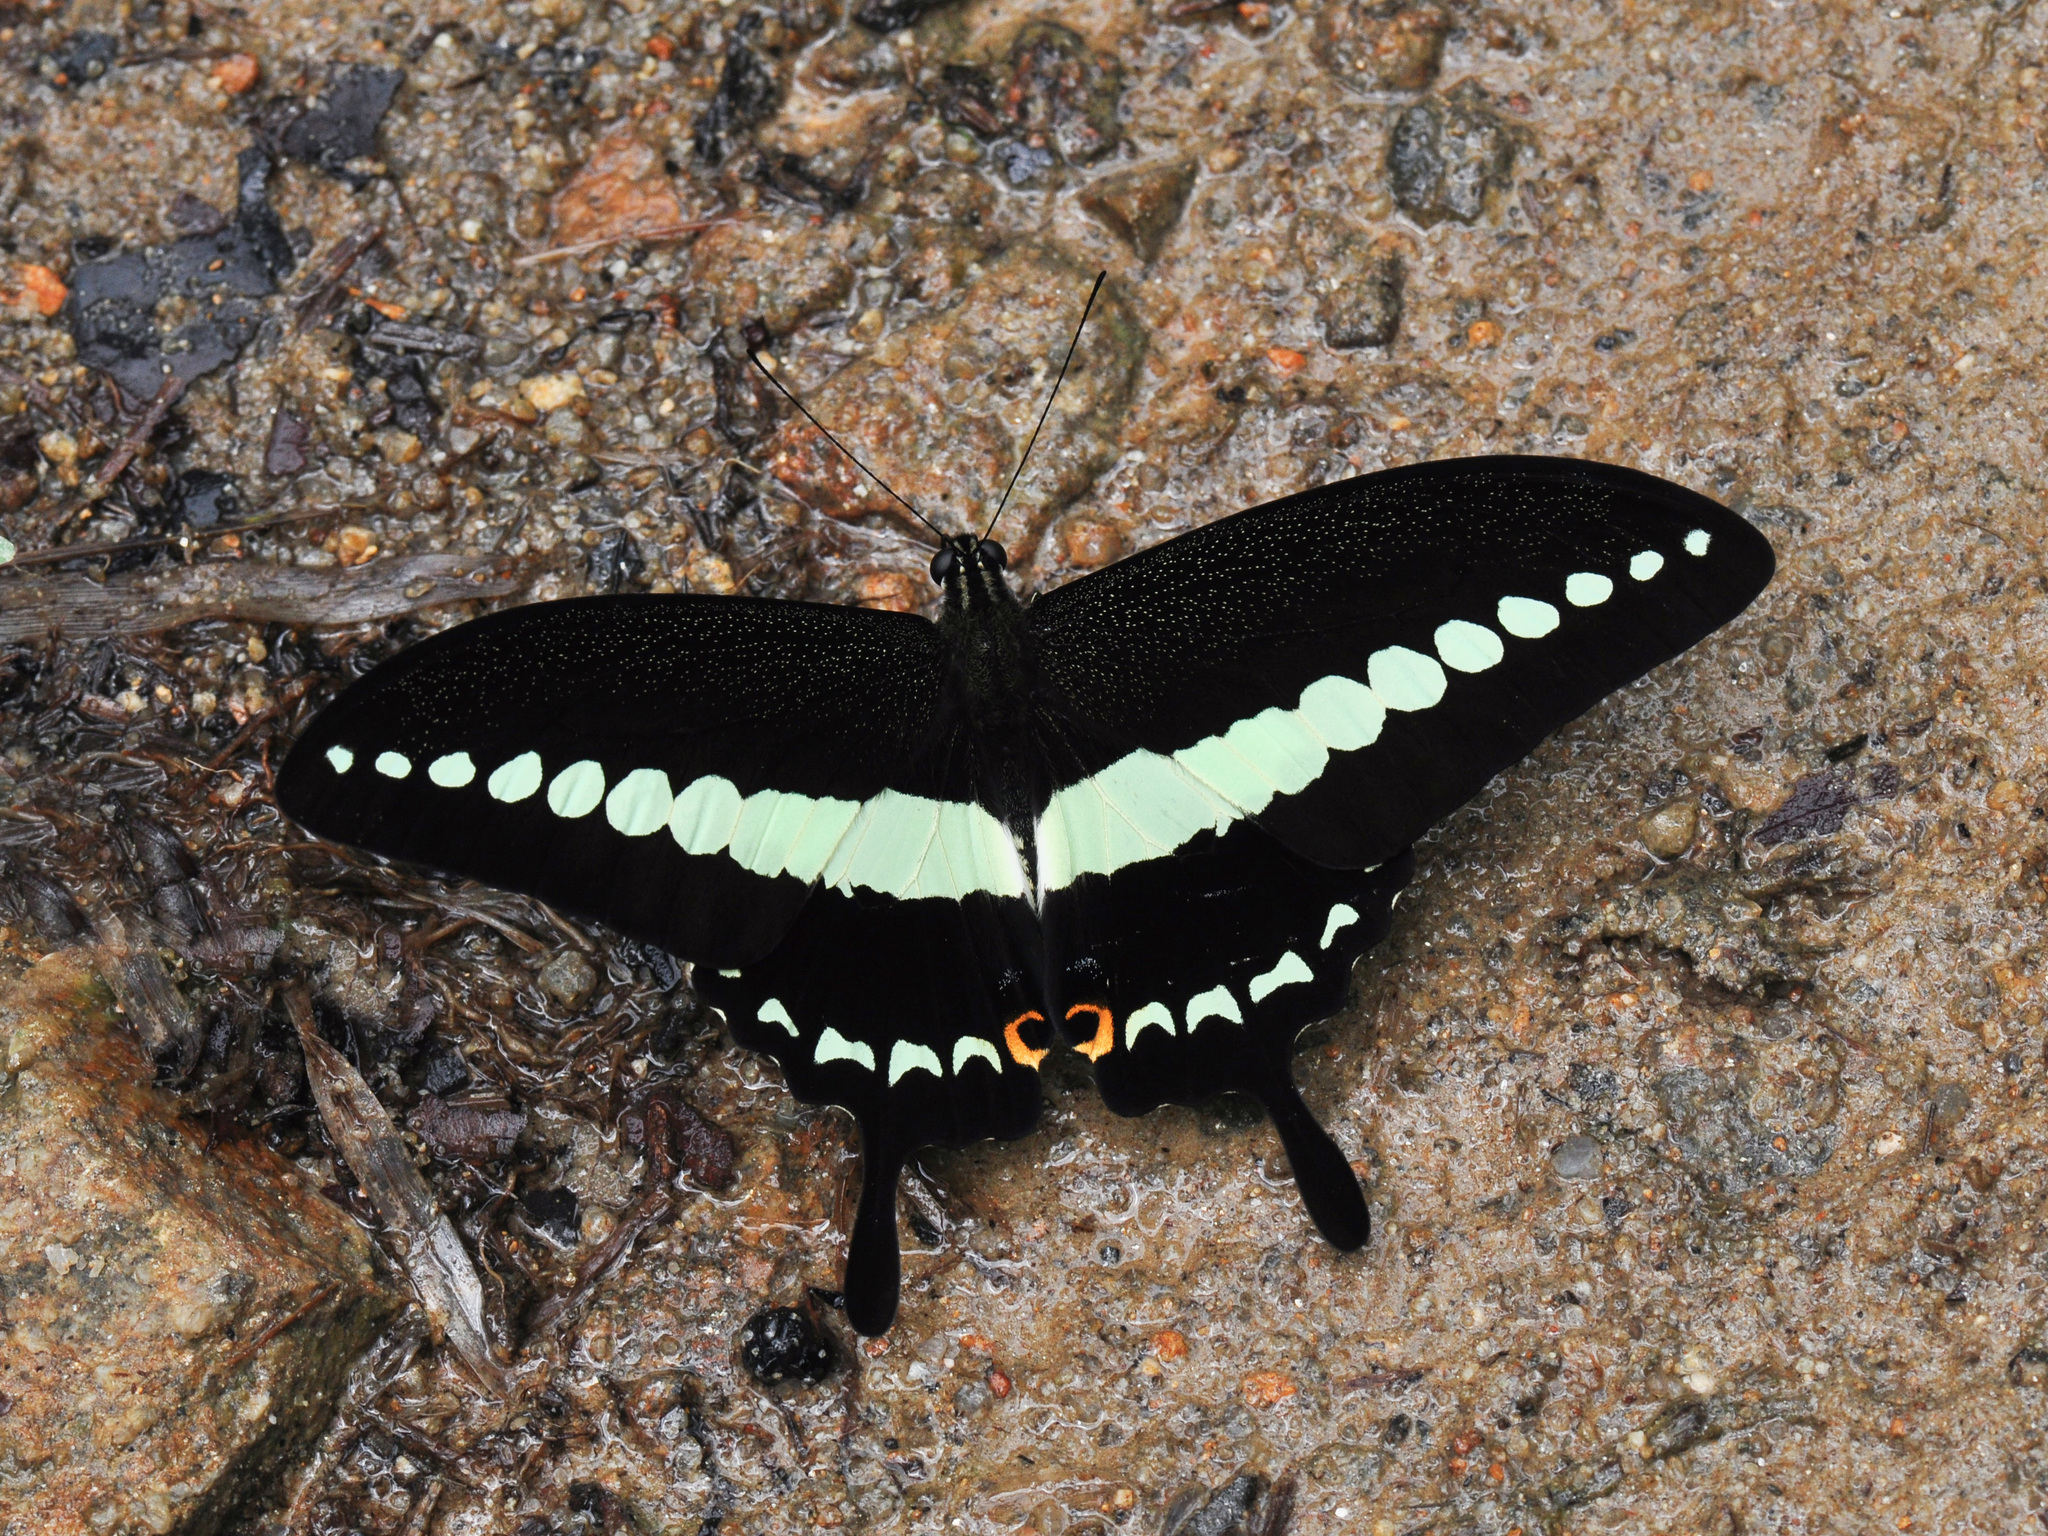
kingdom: Animalia
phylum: Arthropoda
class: Insecta
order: Lepidoptera
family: Papilionidae
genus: Papilio
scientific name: Papilio demolion
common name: Banded swallowtail
